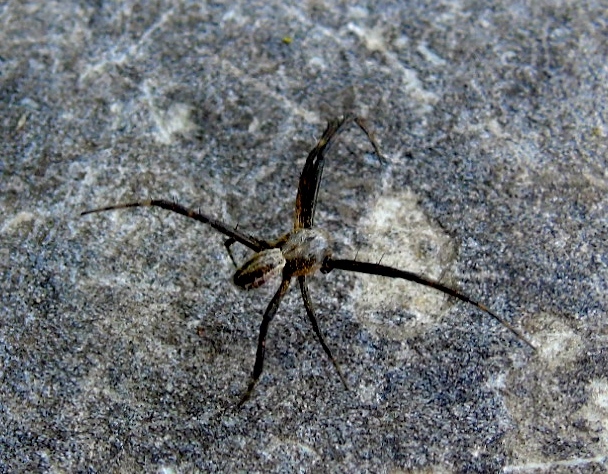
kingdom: Animalia
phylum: Arthropoda
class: Arachnida
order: Araneae
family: Araneidae
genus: Argiope
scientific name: Argiope
